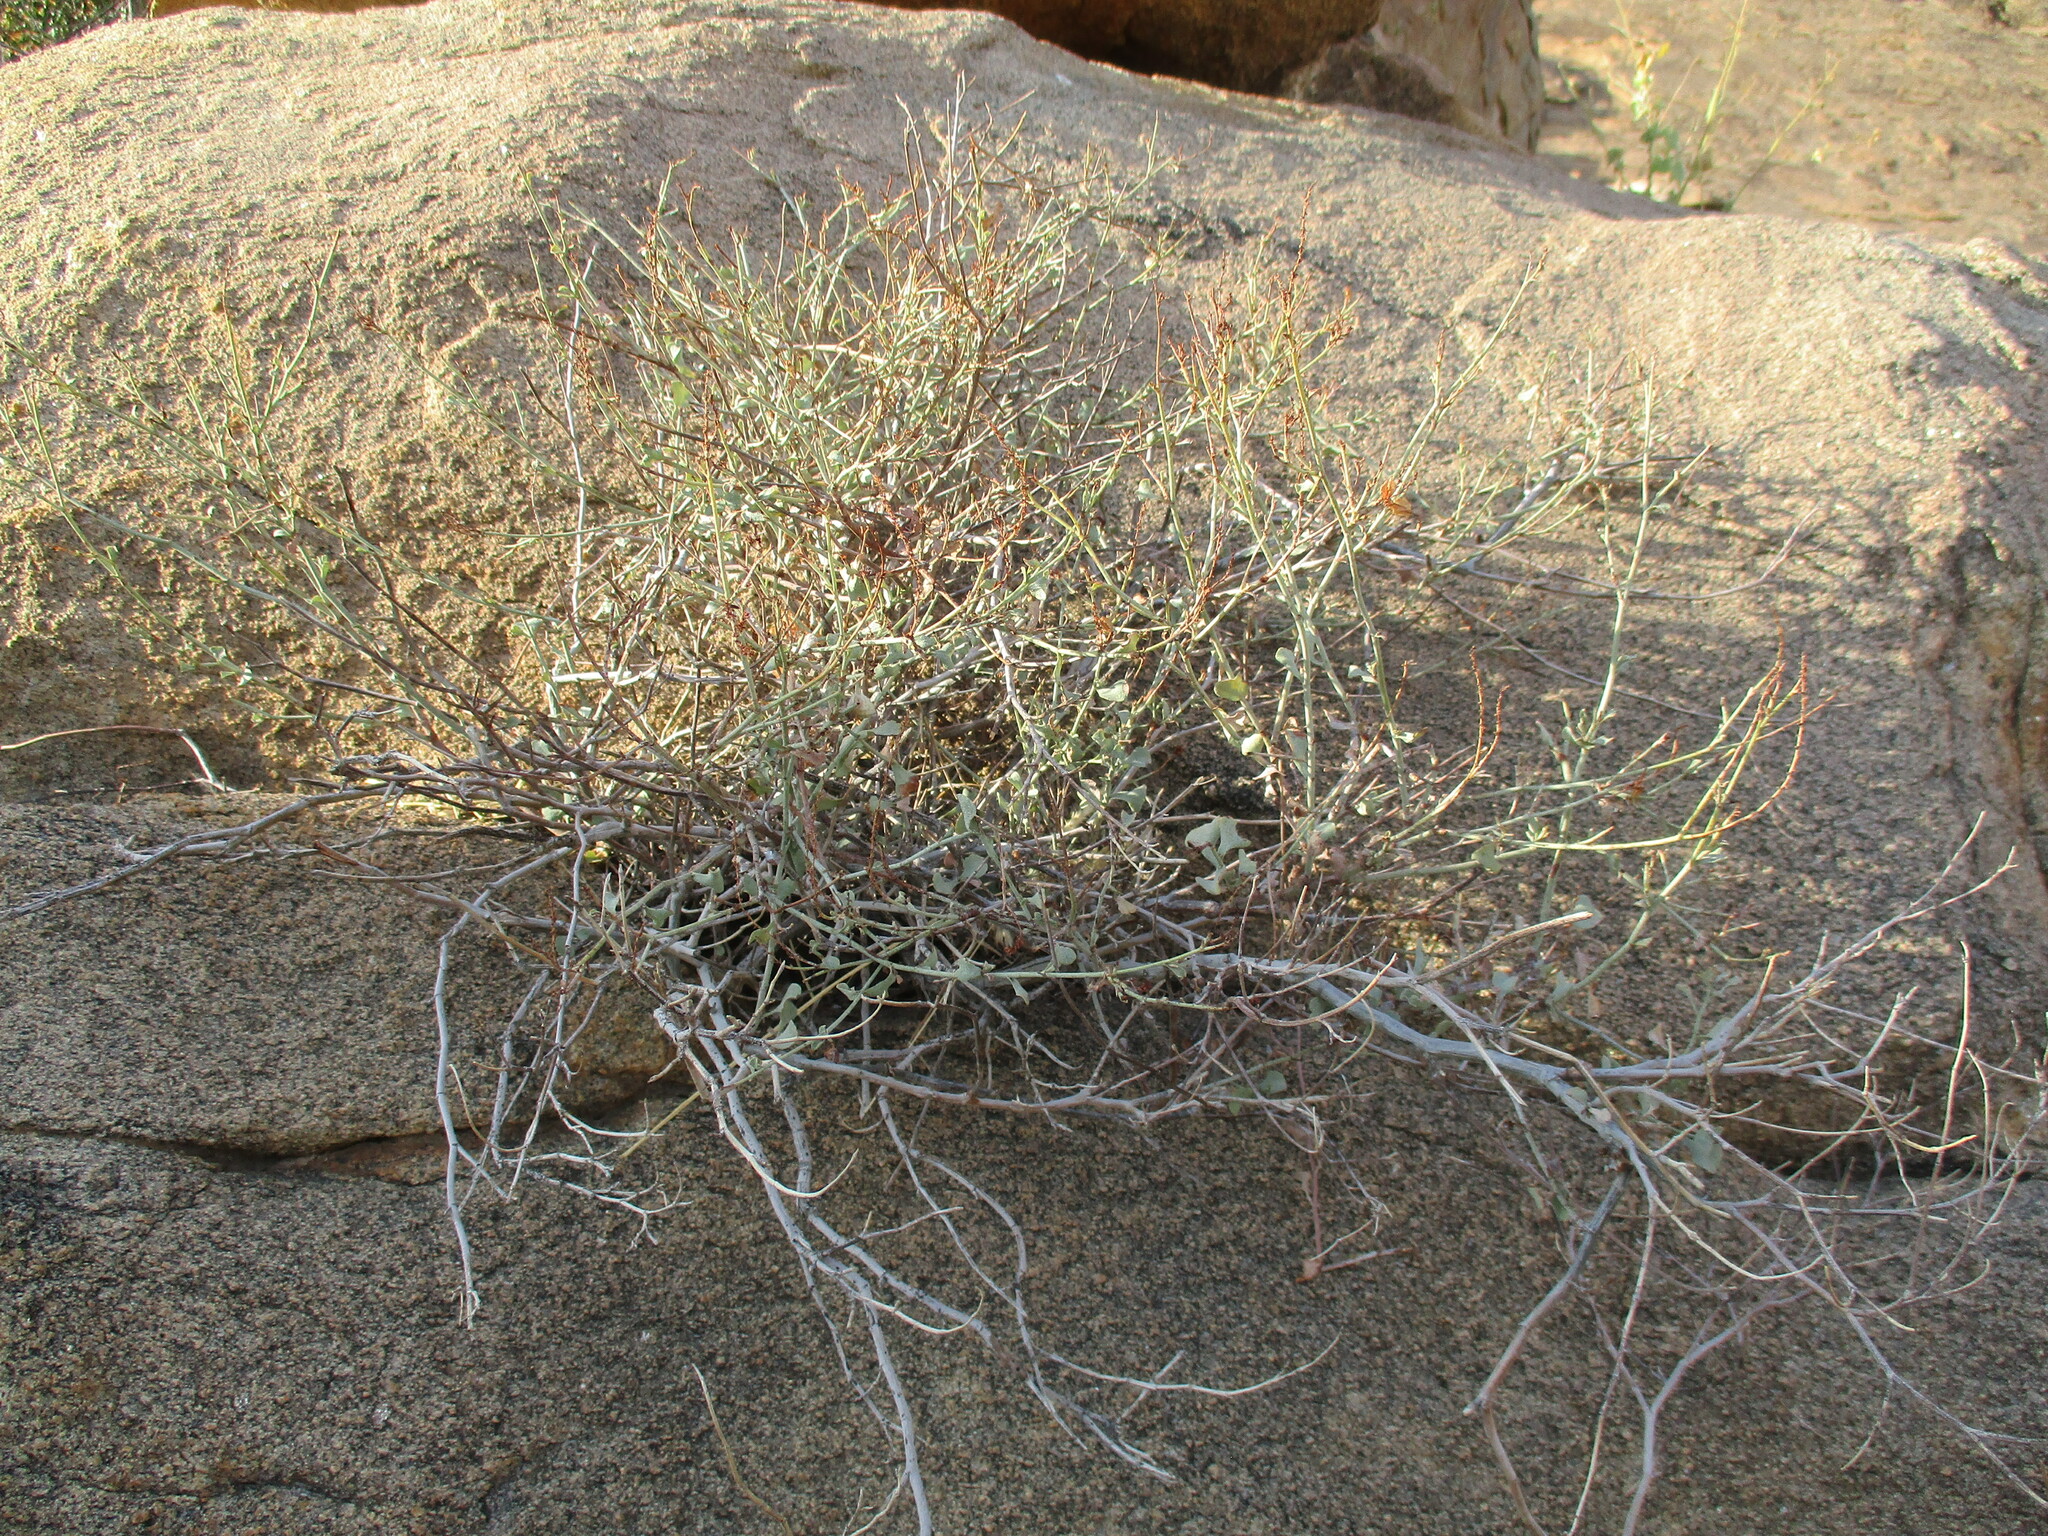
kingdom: Plantae
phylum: Tracheophyta
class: Magnoliopsida
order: Caryophyllales
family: Plumbaginaceae
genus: Dyerophytum
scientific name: Dyerophytum africanum
